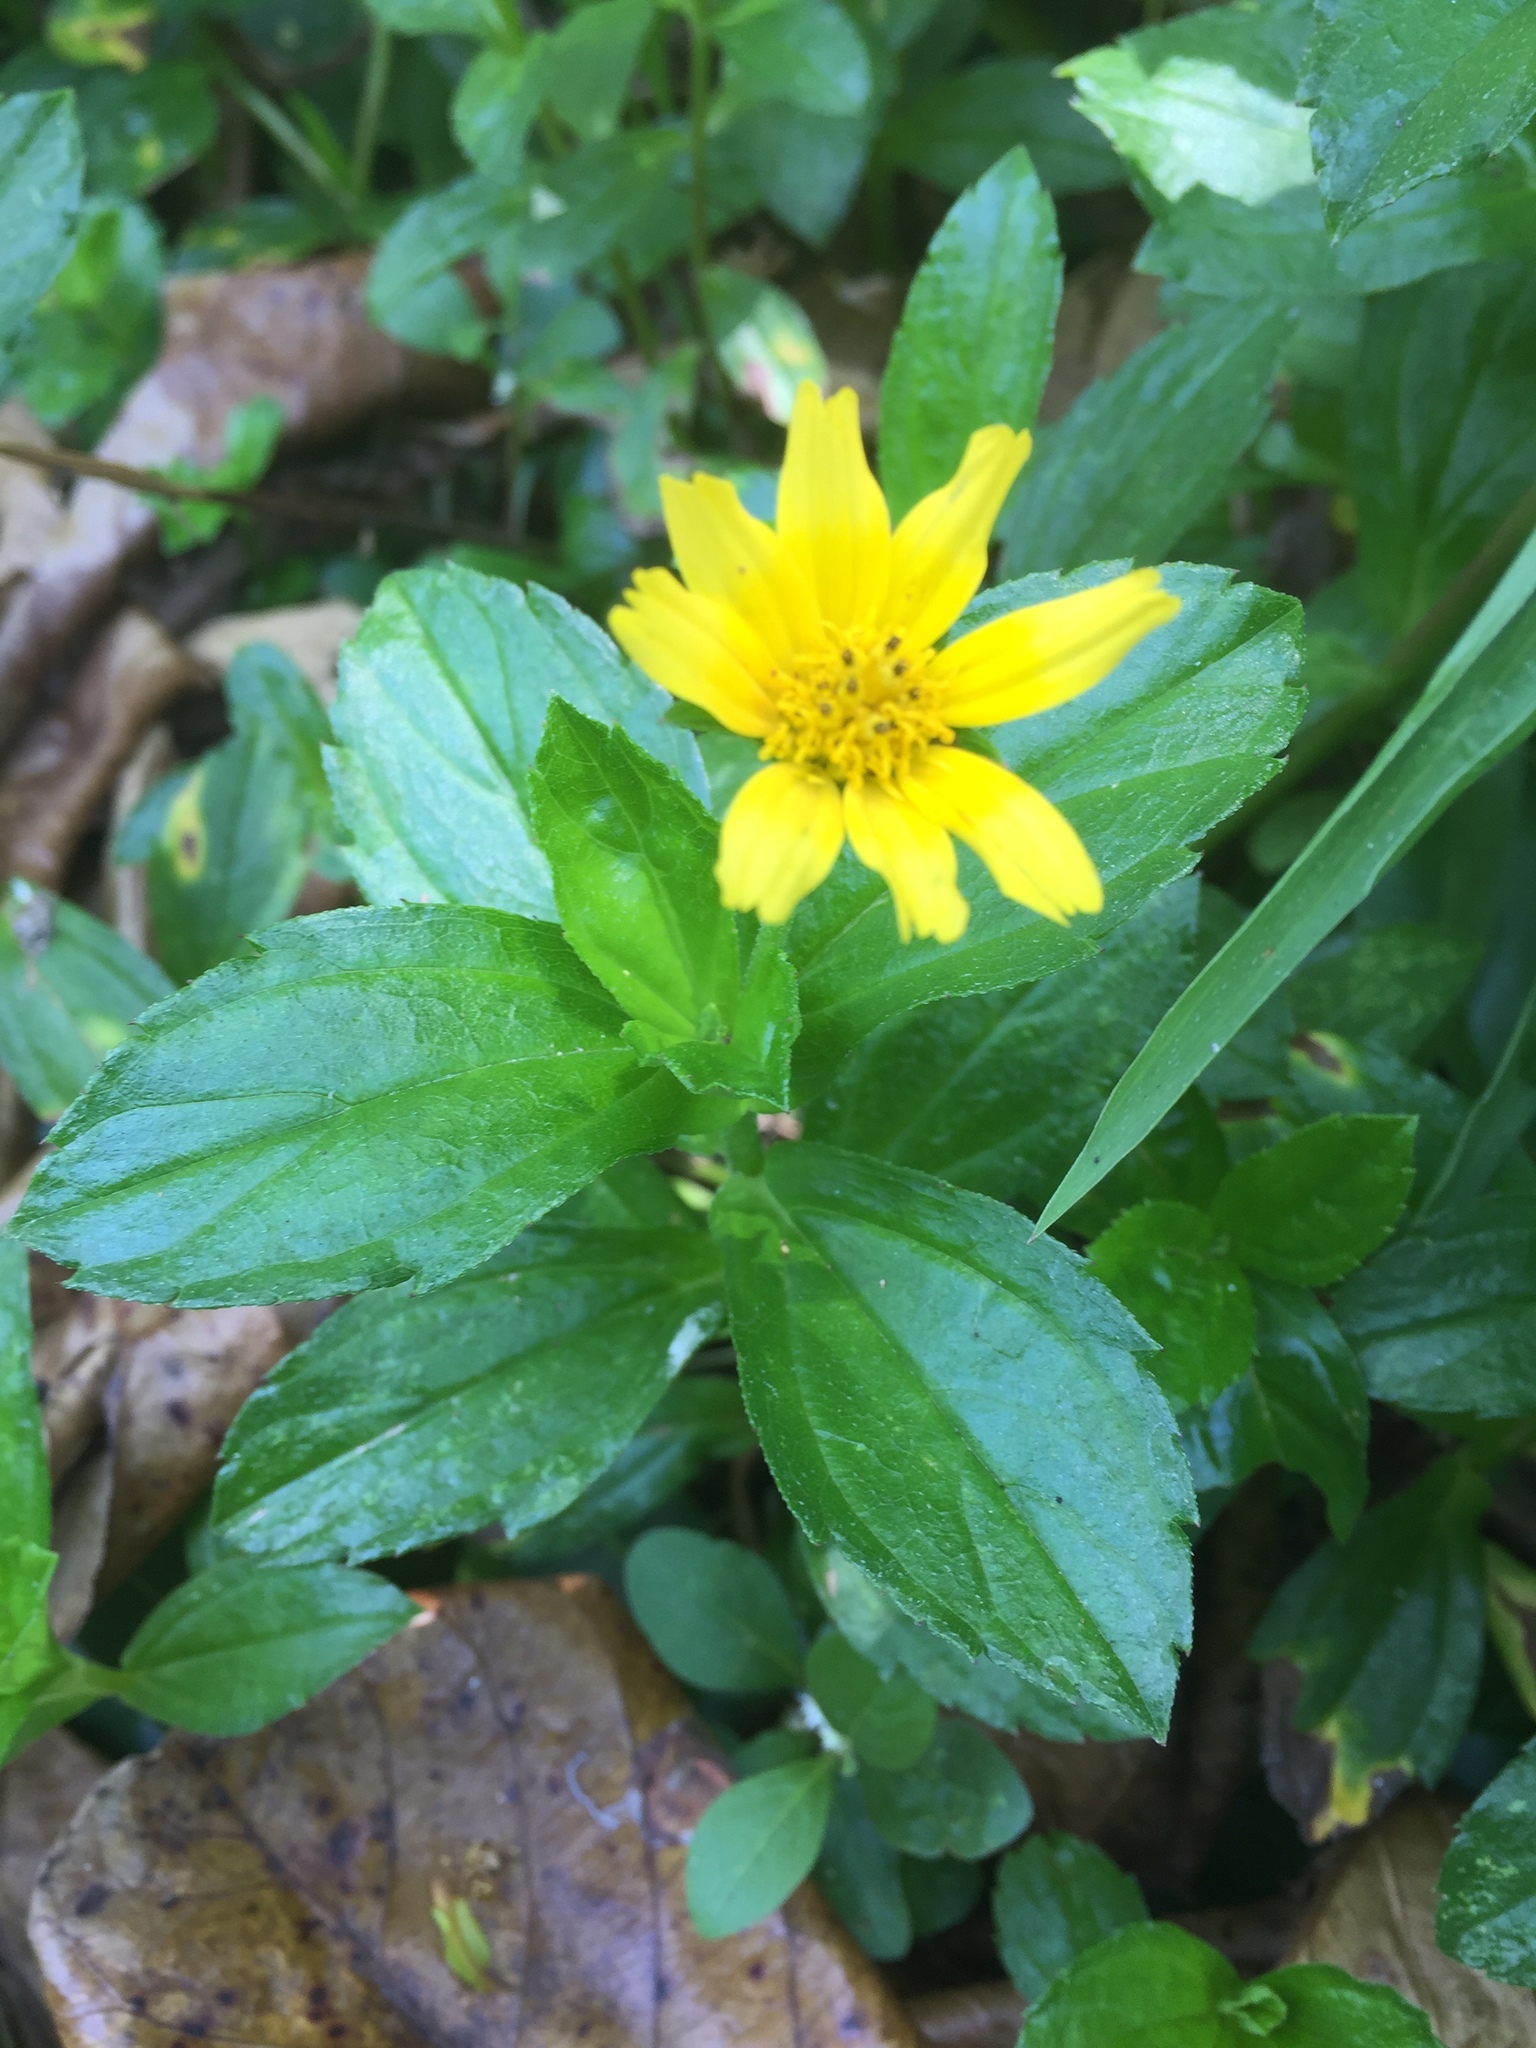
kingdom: Plantae
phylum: Tracheophyta
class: Magnoliopsida
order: Asterales
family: Asteraceae
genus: Sphagneticola
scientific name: Sphagneticola trilobata
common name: Bay biscayne creeping-oxeye
